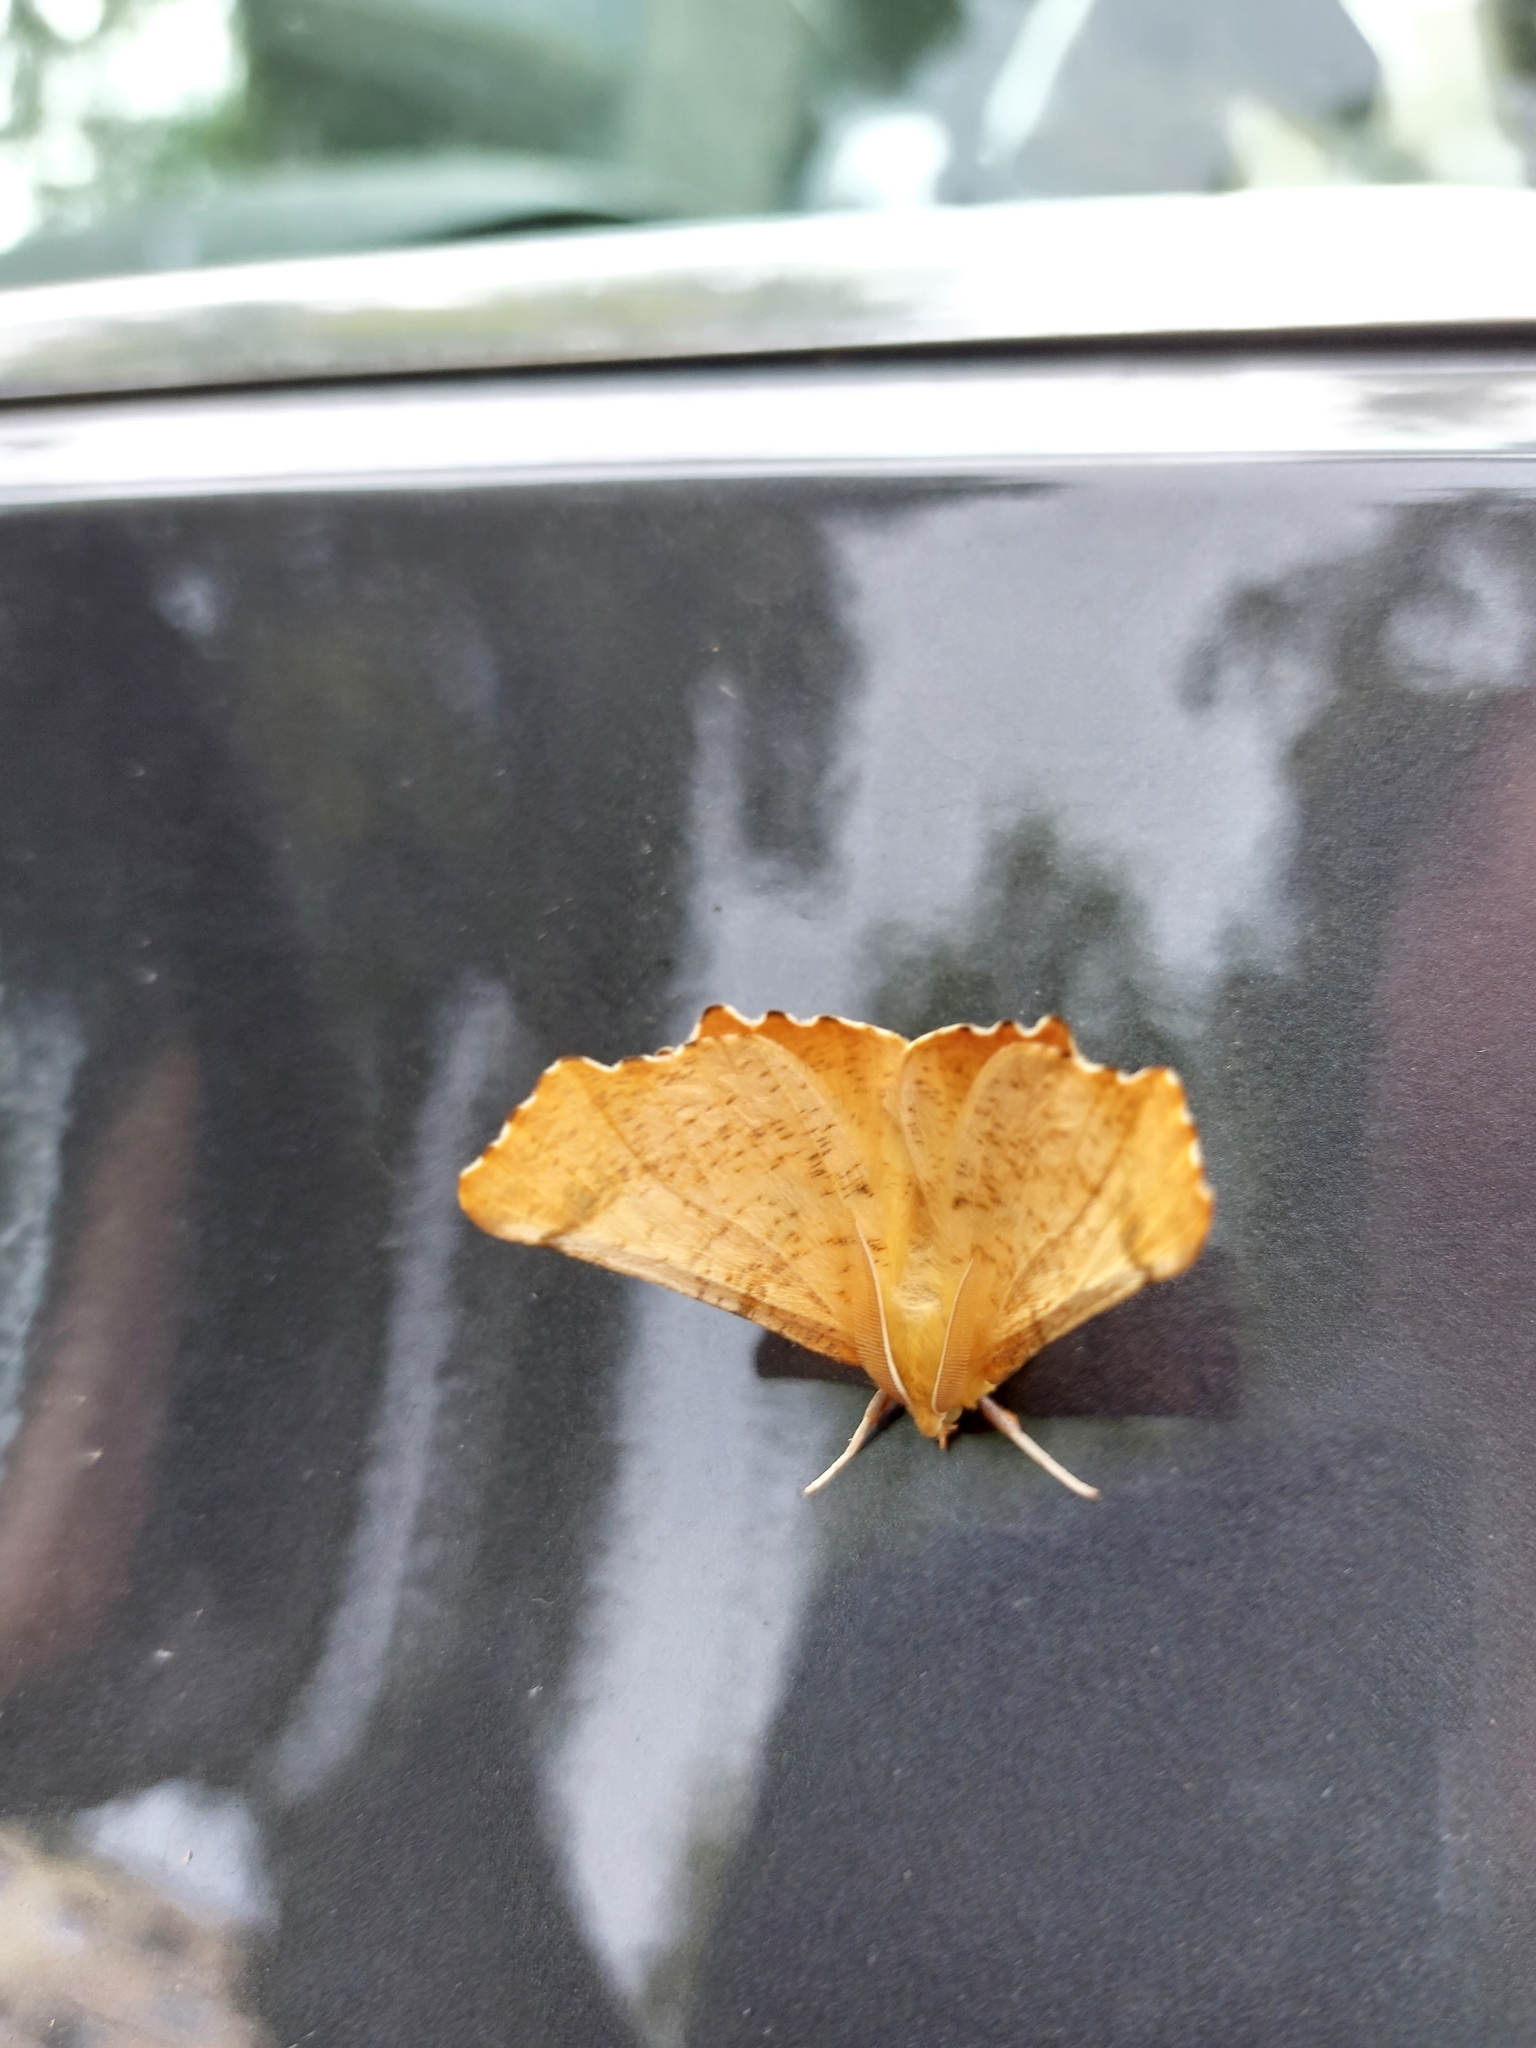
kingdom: Animalia
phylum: Arthropoda
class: Insecta
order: Lepidoptera
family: Geometridae
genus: Ennomos
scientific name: Ennomos autumnaria
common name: Large thorn
